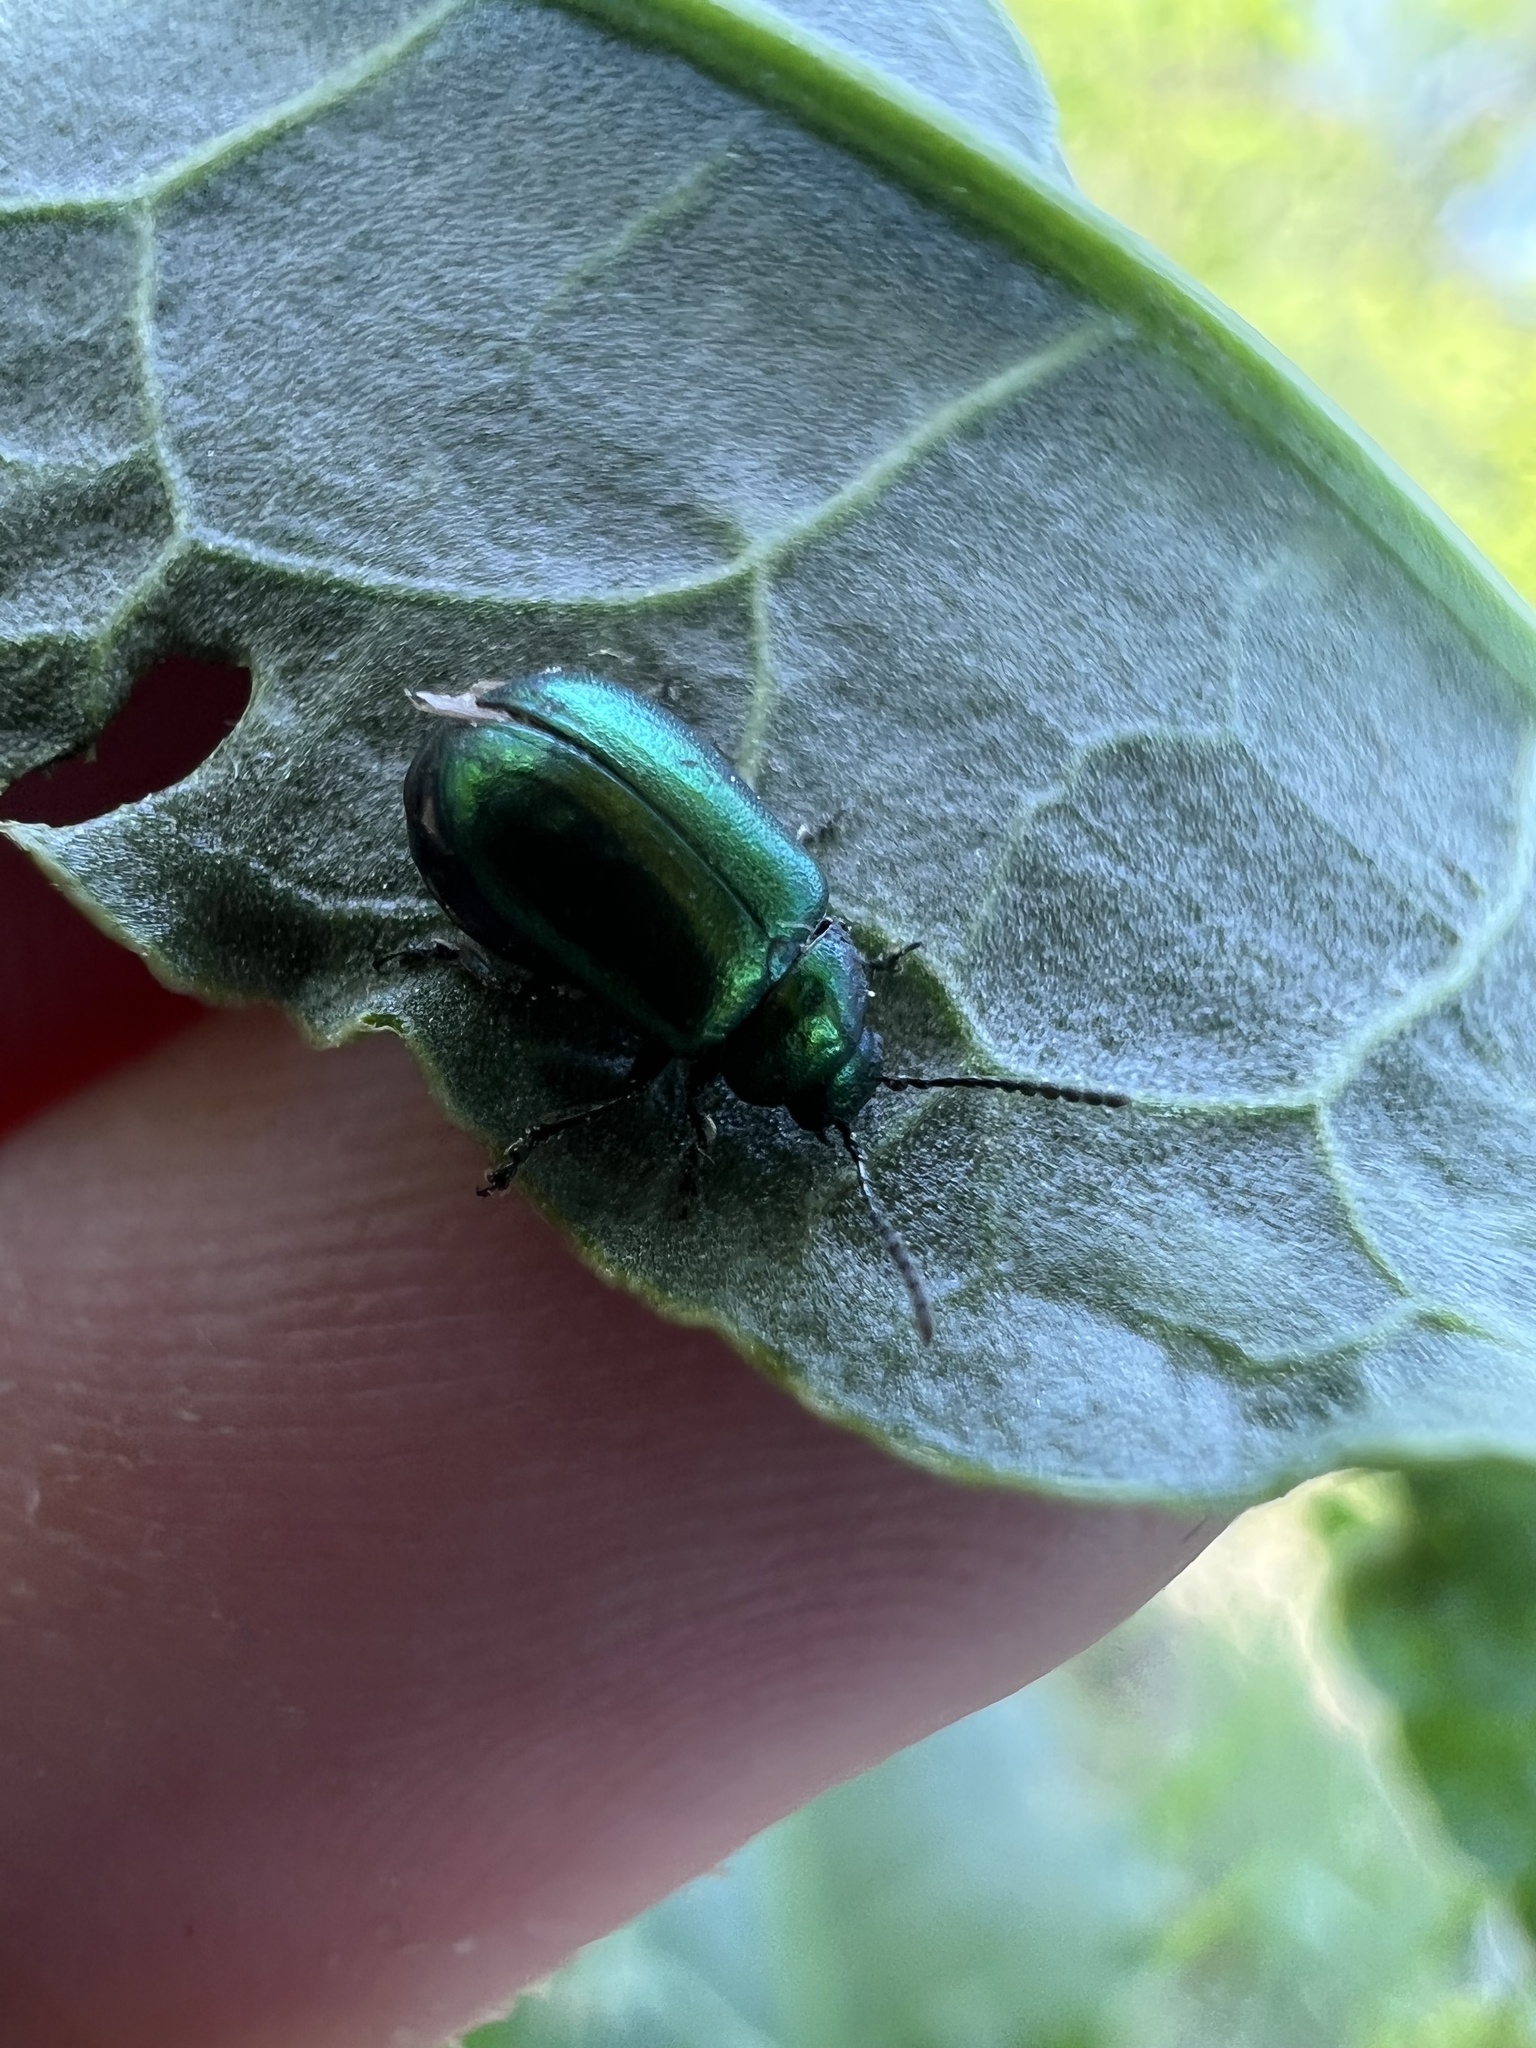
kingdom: Animalia
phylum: Arthropoda
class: Insecta
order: Coleoptera
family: Chrysomelidae
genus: Gastrophysa
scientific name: Gastrophysa cyanea
